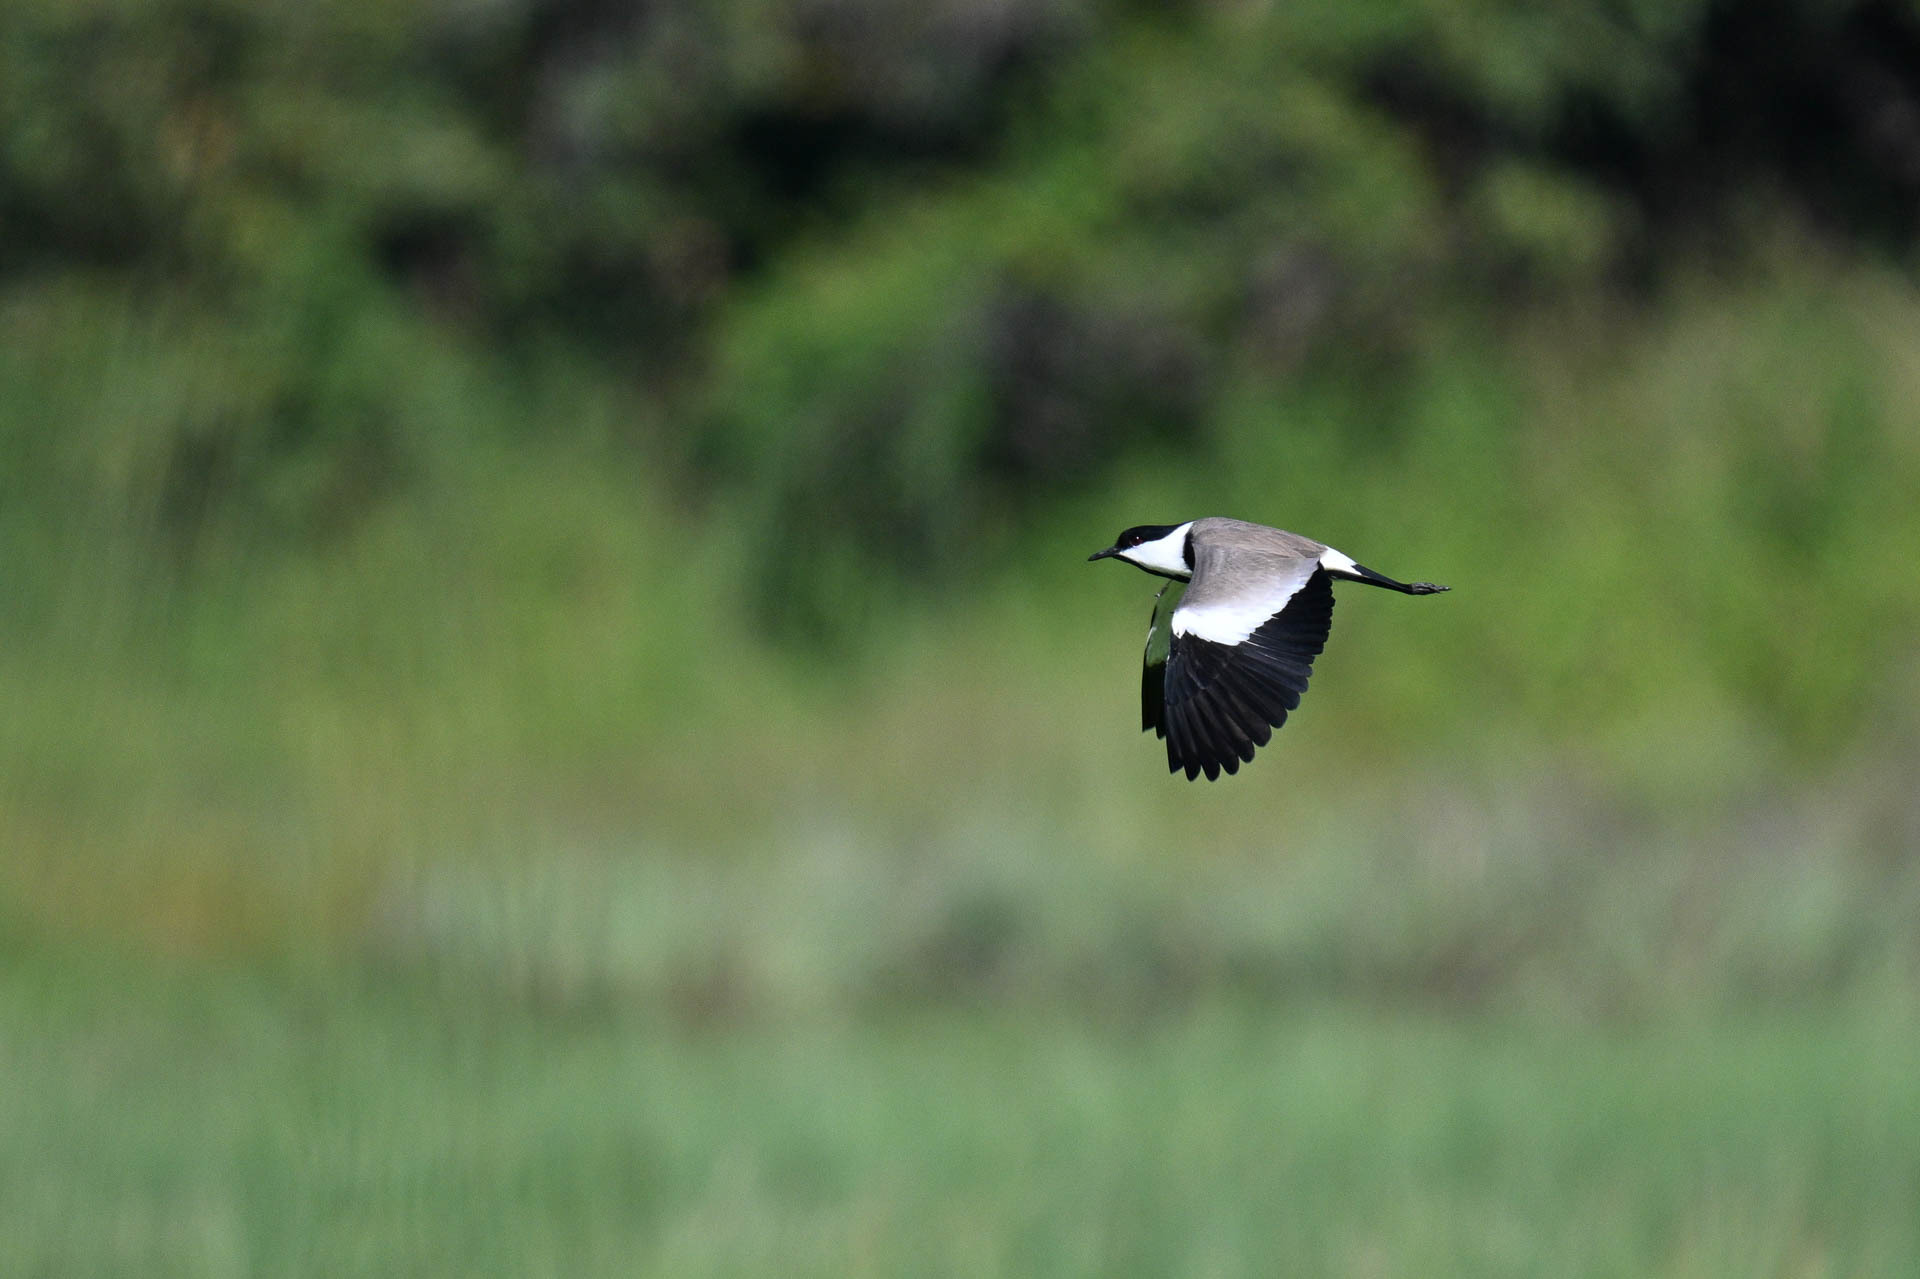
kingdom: Animalia
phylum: Chordata
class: Aves
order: Charadriiformes
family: Charadriidae
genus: Vanellus
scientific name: Vanellus spinosus
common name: Spur-winged lapwing
